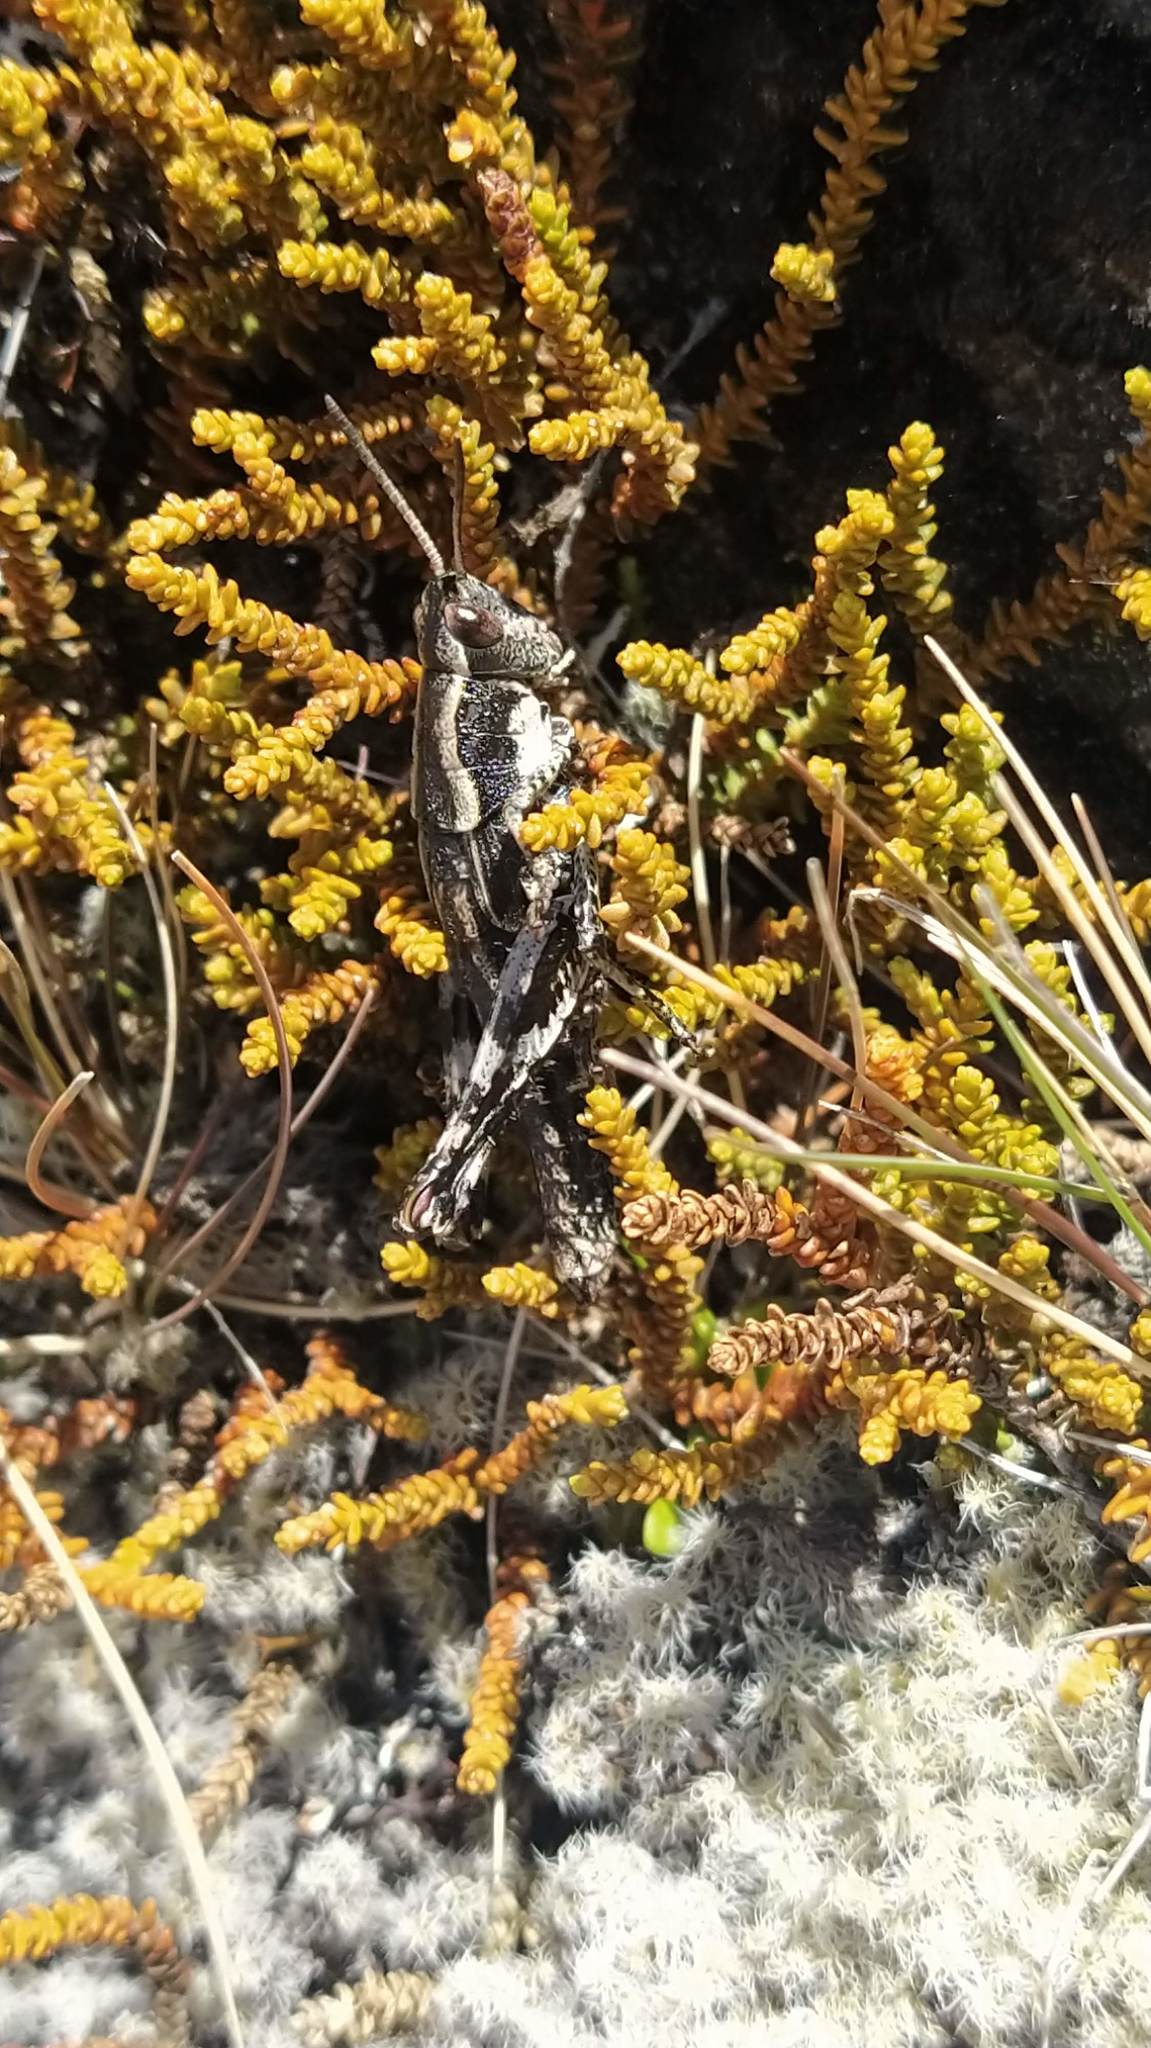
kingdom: Animalia
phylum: Arthropoda
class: Insecta
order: Orthoptera
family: Acrididae
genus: Sigaus
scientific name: Sigaus piliferus
